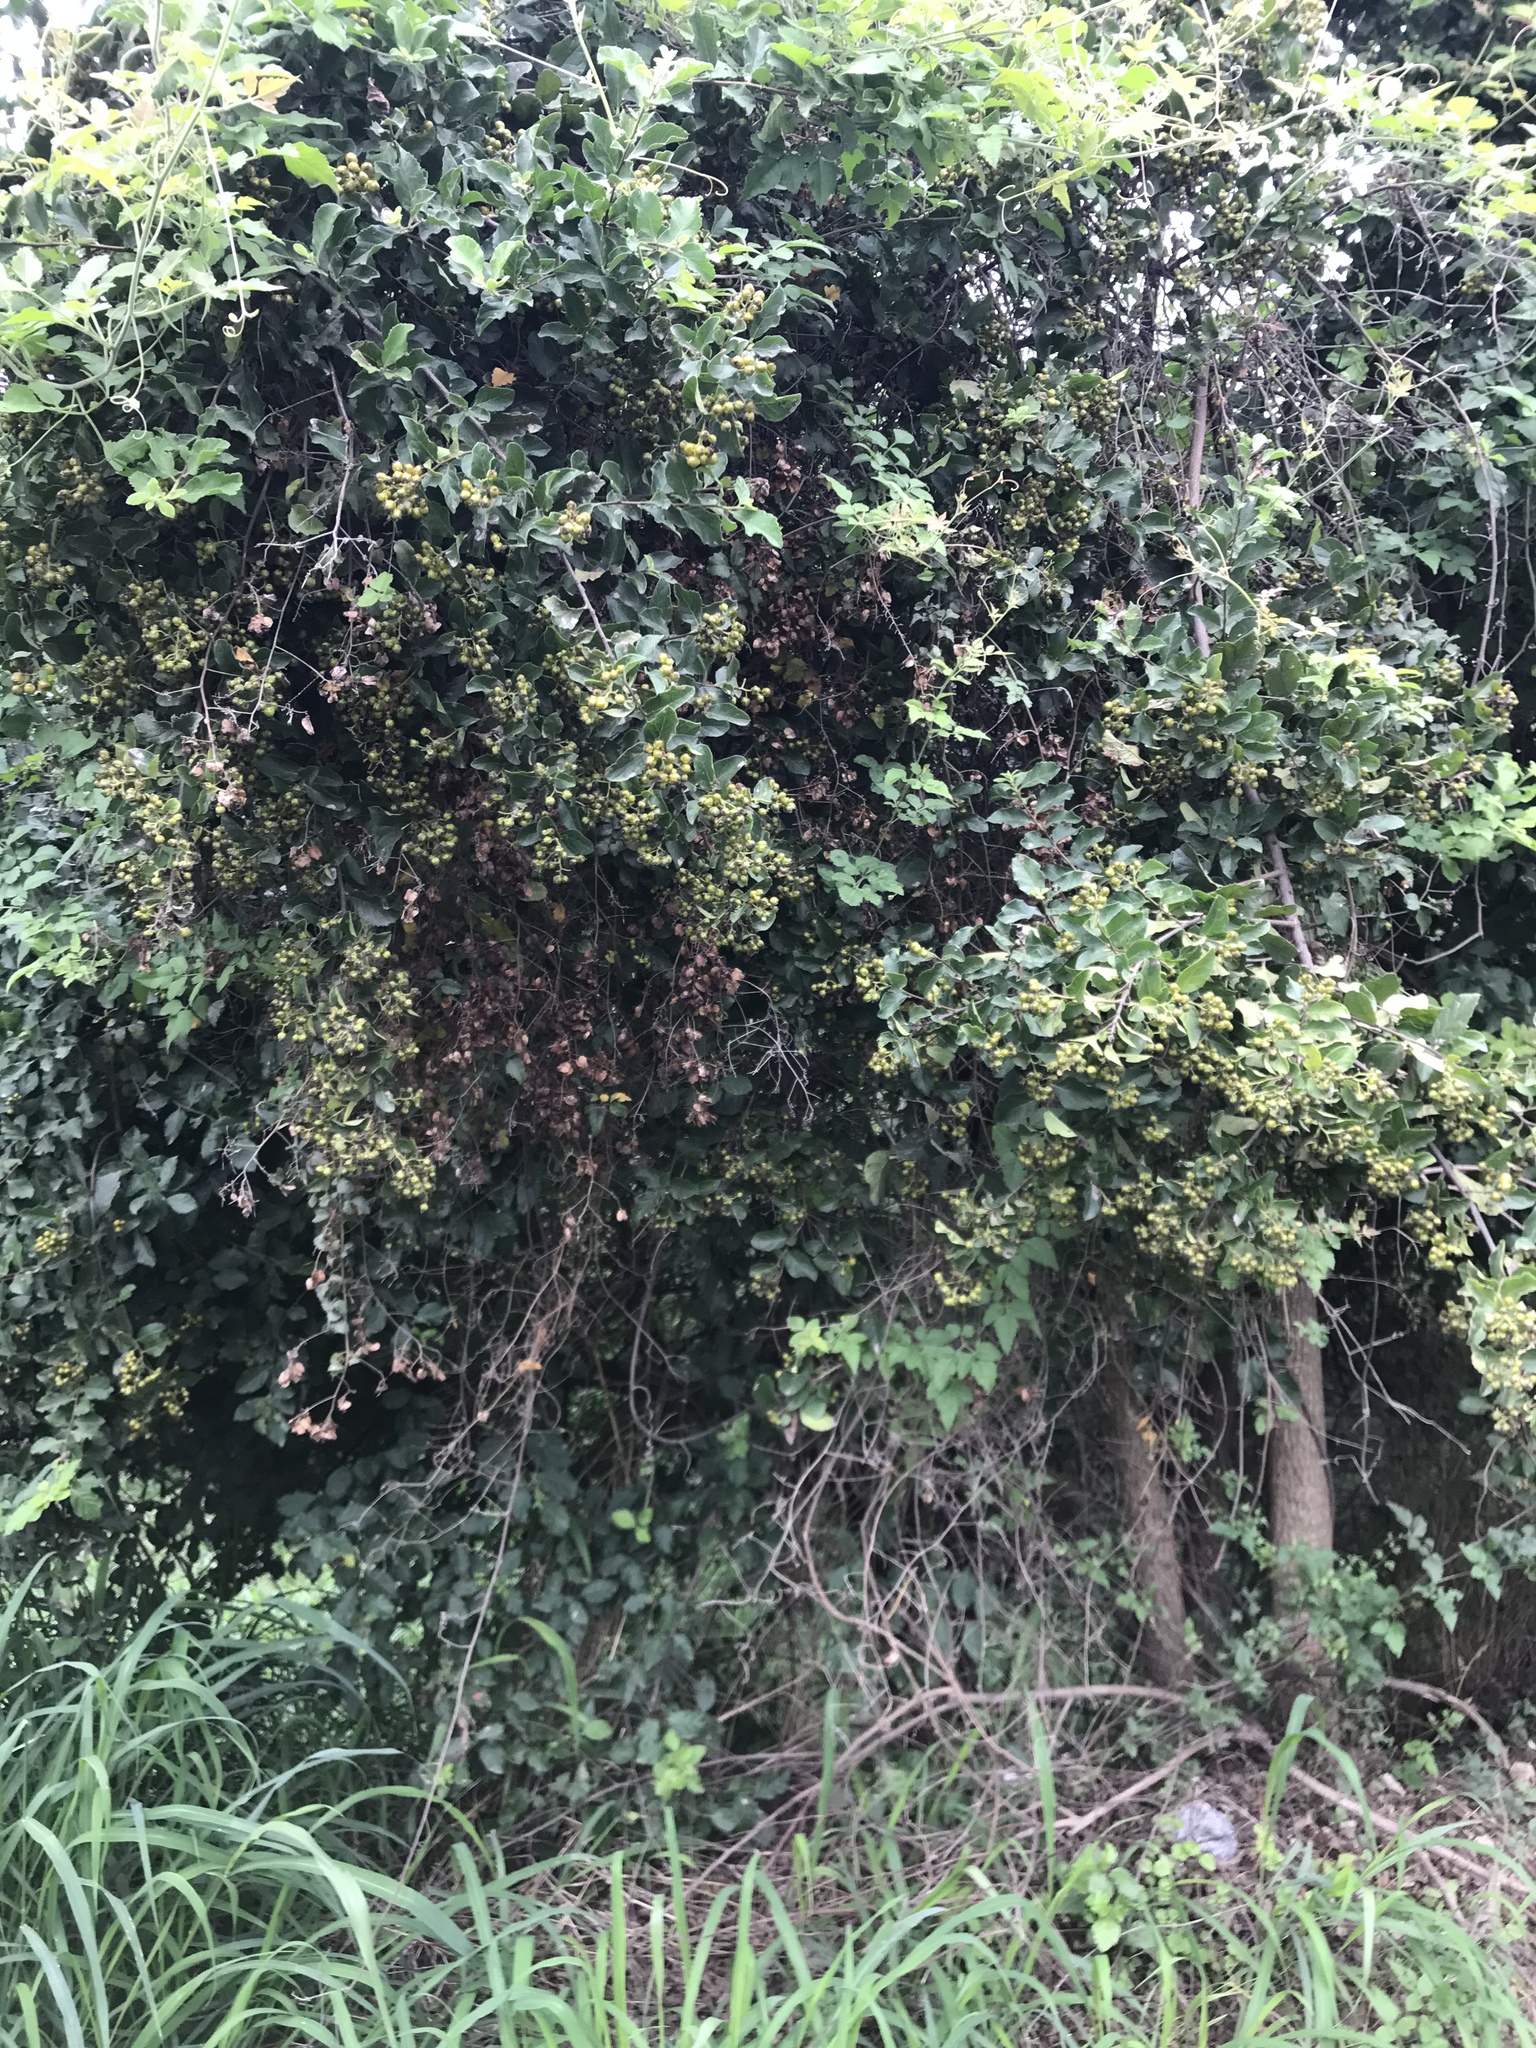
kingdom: Plantae
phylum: Tracheophyta
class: Magnoliopsida
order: Boraginales
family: Ehretiaceae
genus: Ehretia
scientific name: Ehretia anacua
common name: Sugarberry
